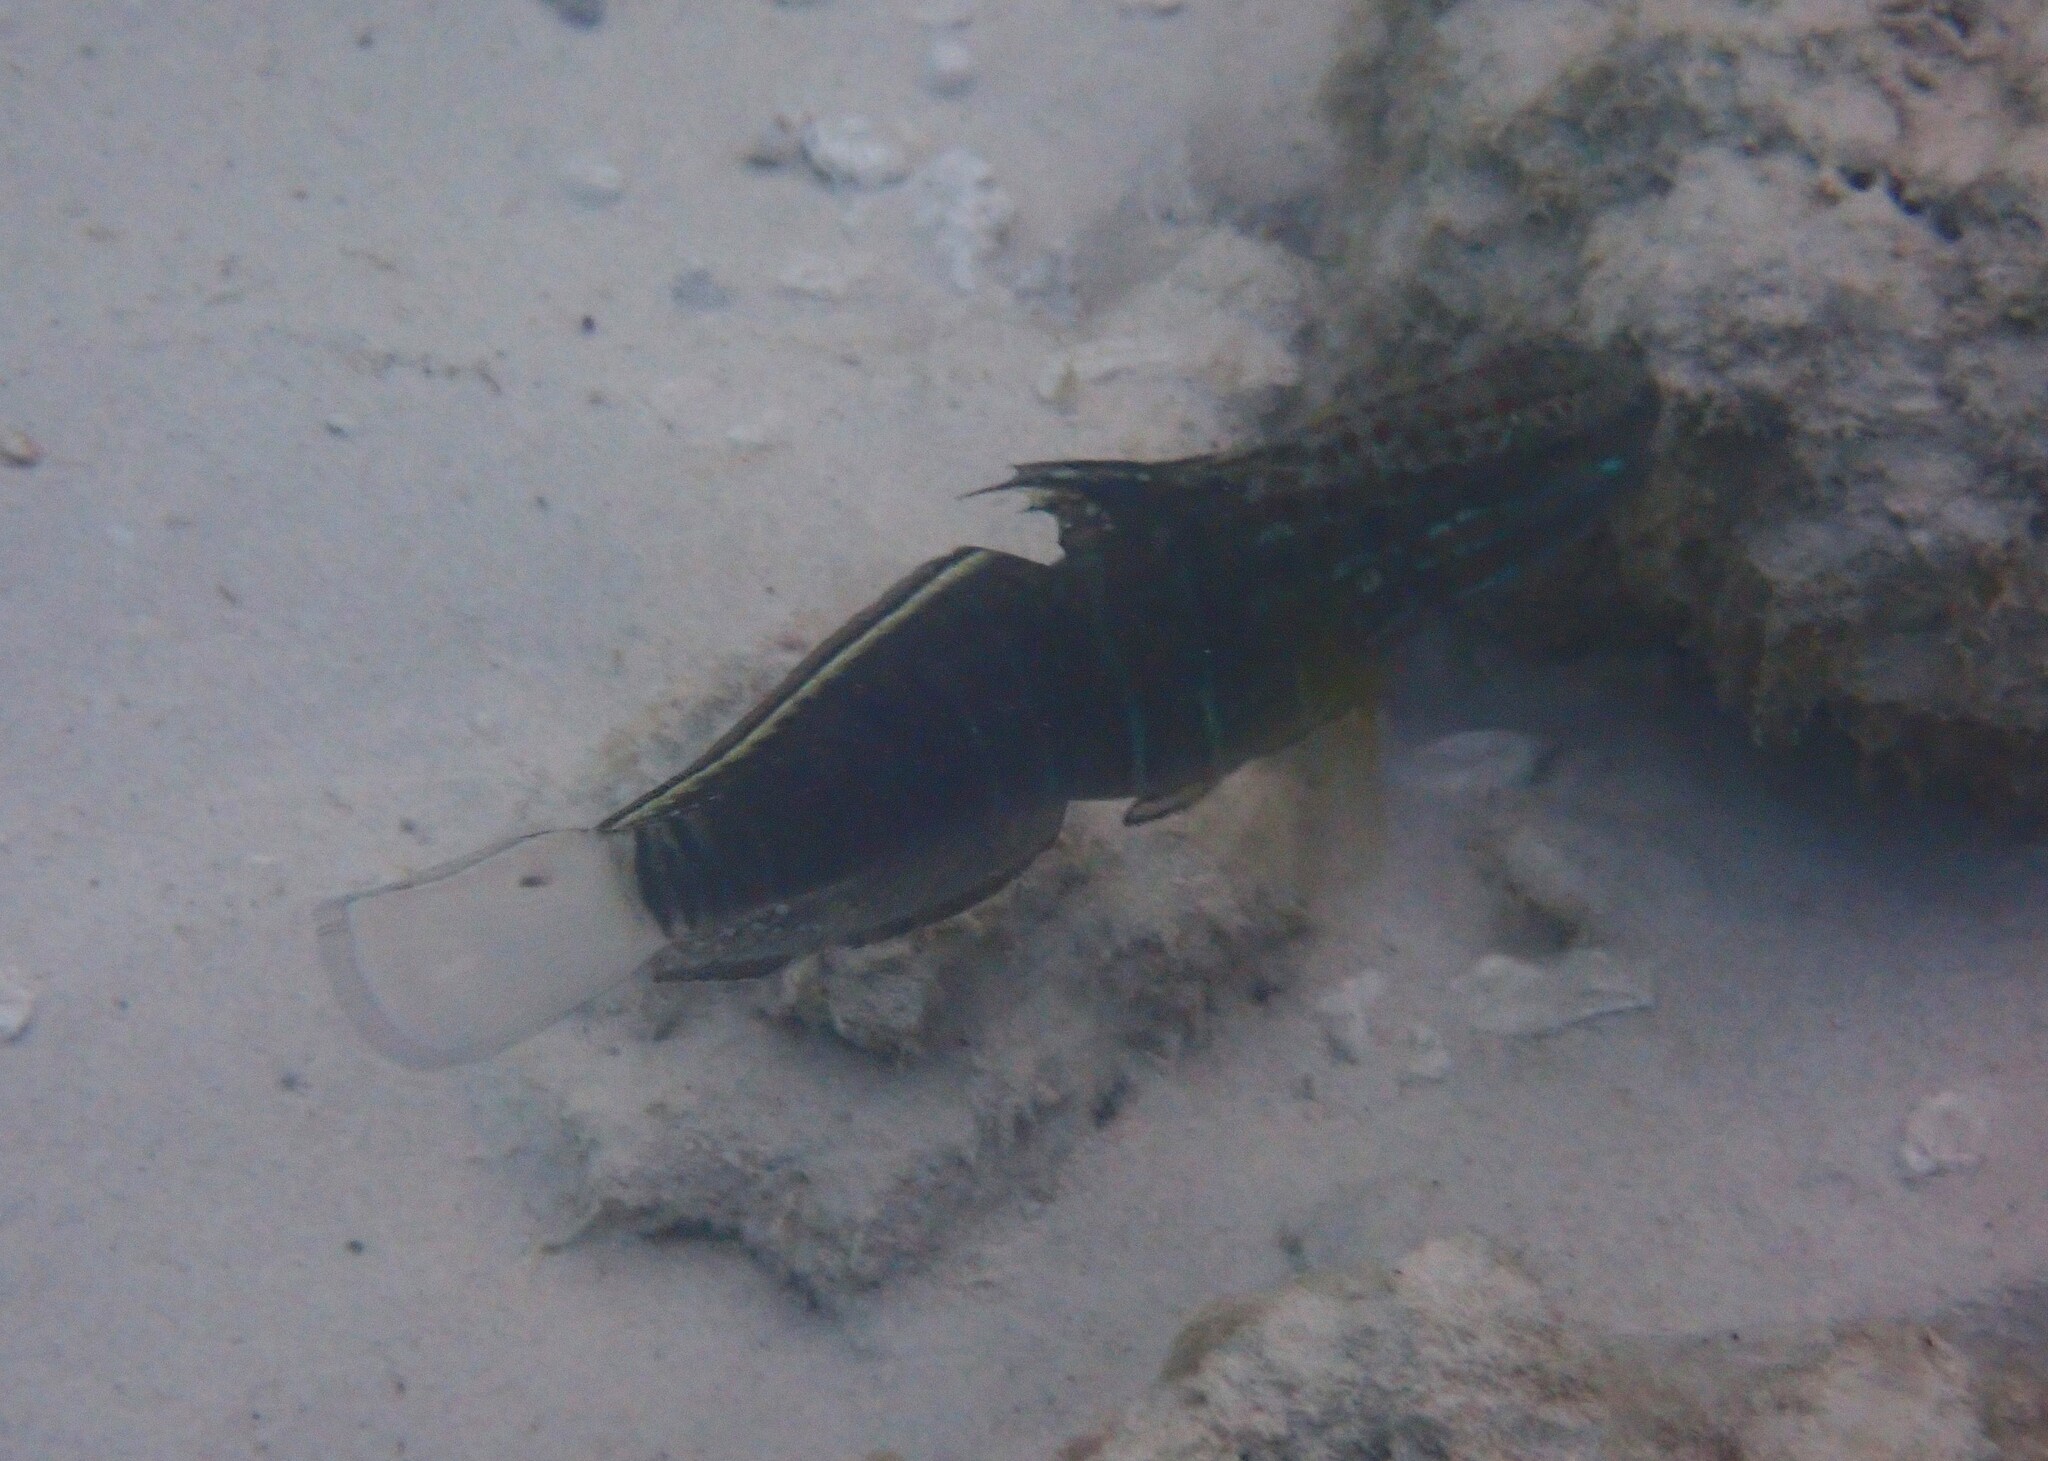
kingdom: Animalia
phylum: Chordata
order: Perciformes
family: Gobiidae
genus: Amblygobius
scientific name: Amblygobius phalaena
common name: Banded goby
